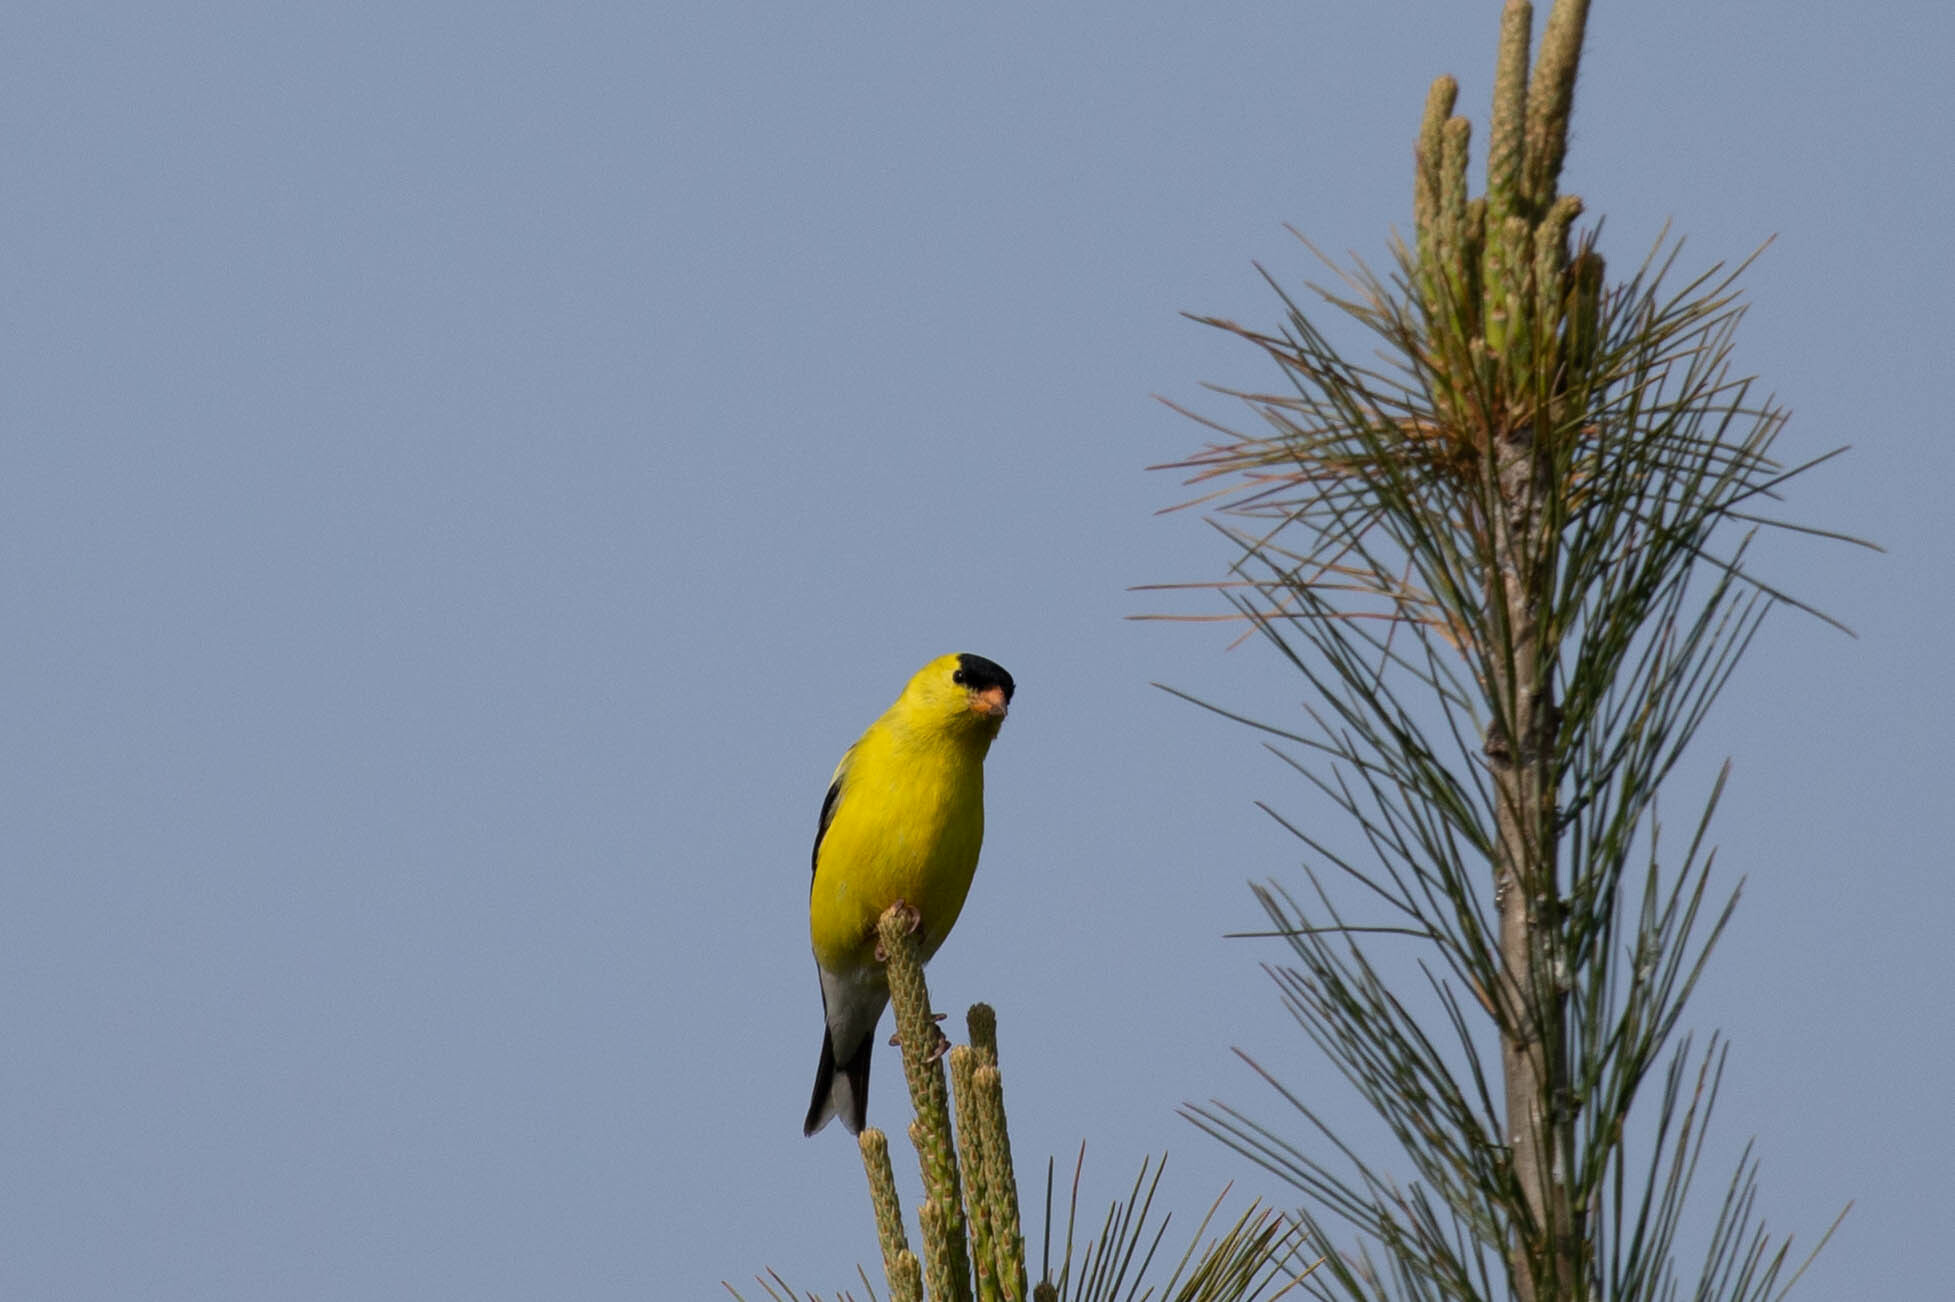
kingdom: Animalia
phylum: Chordata
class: Aves
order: Passeriformes
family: Fringillidae
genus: Spinus
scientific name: Spinus tristis
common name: American goldfinch
